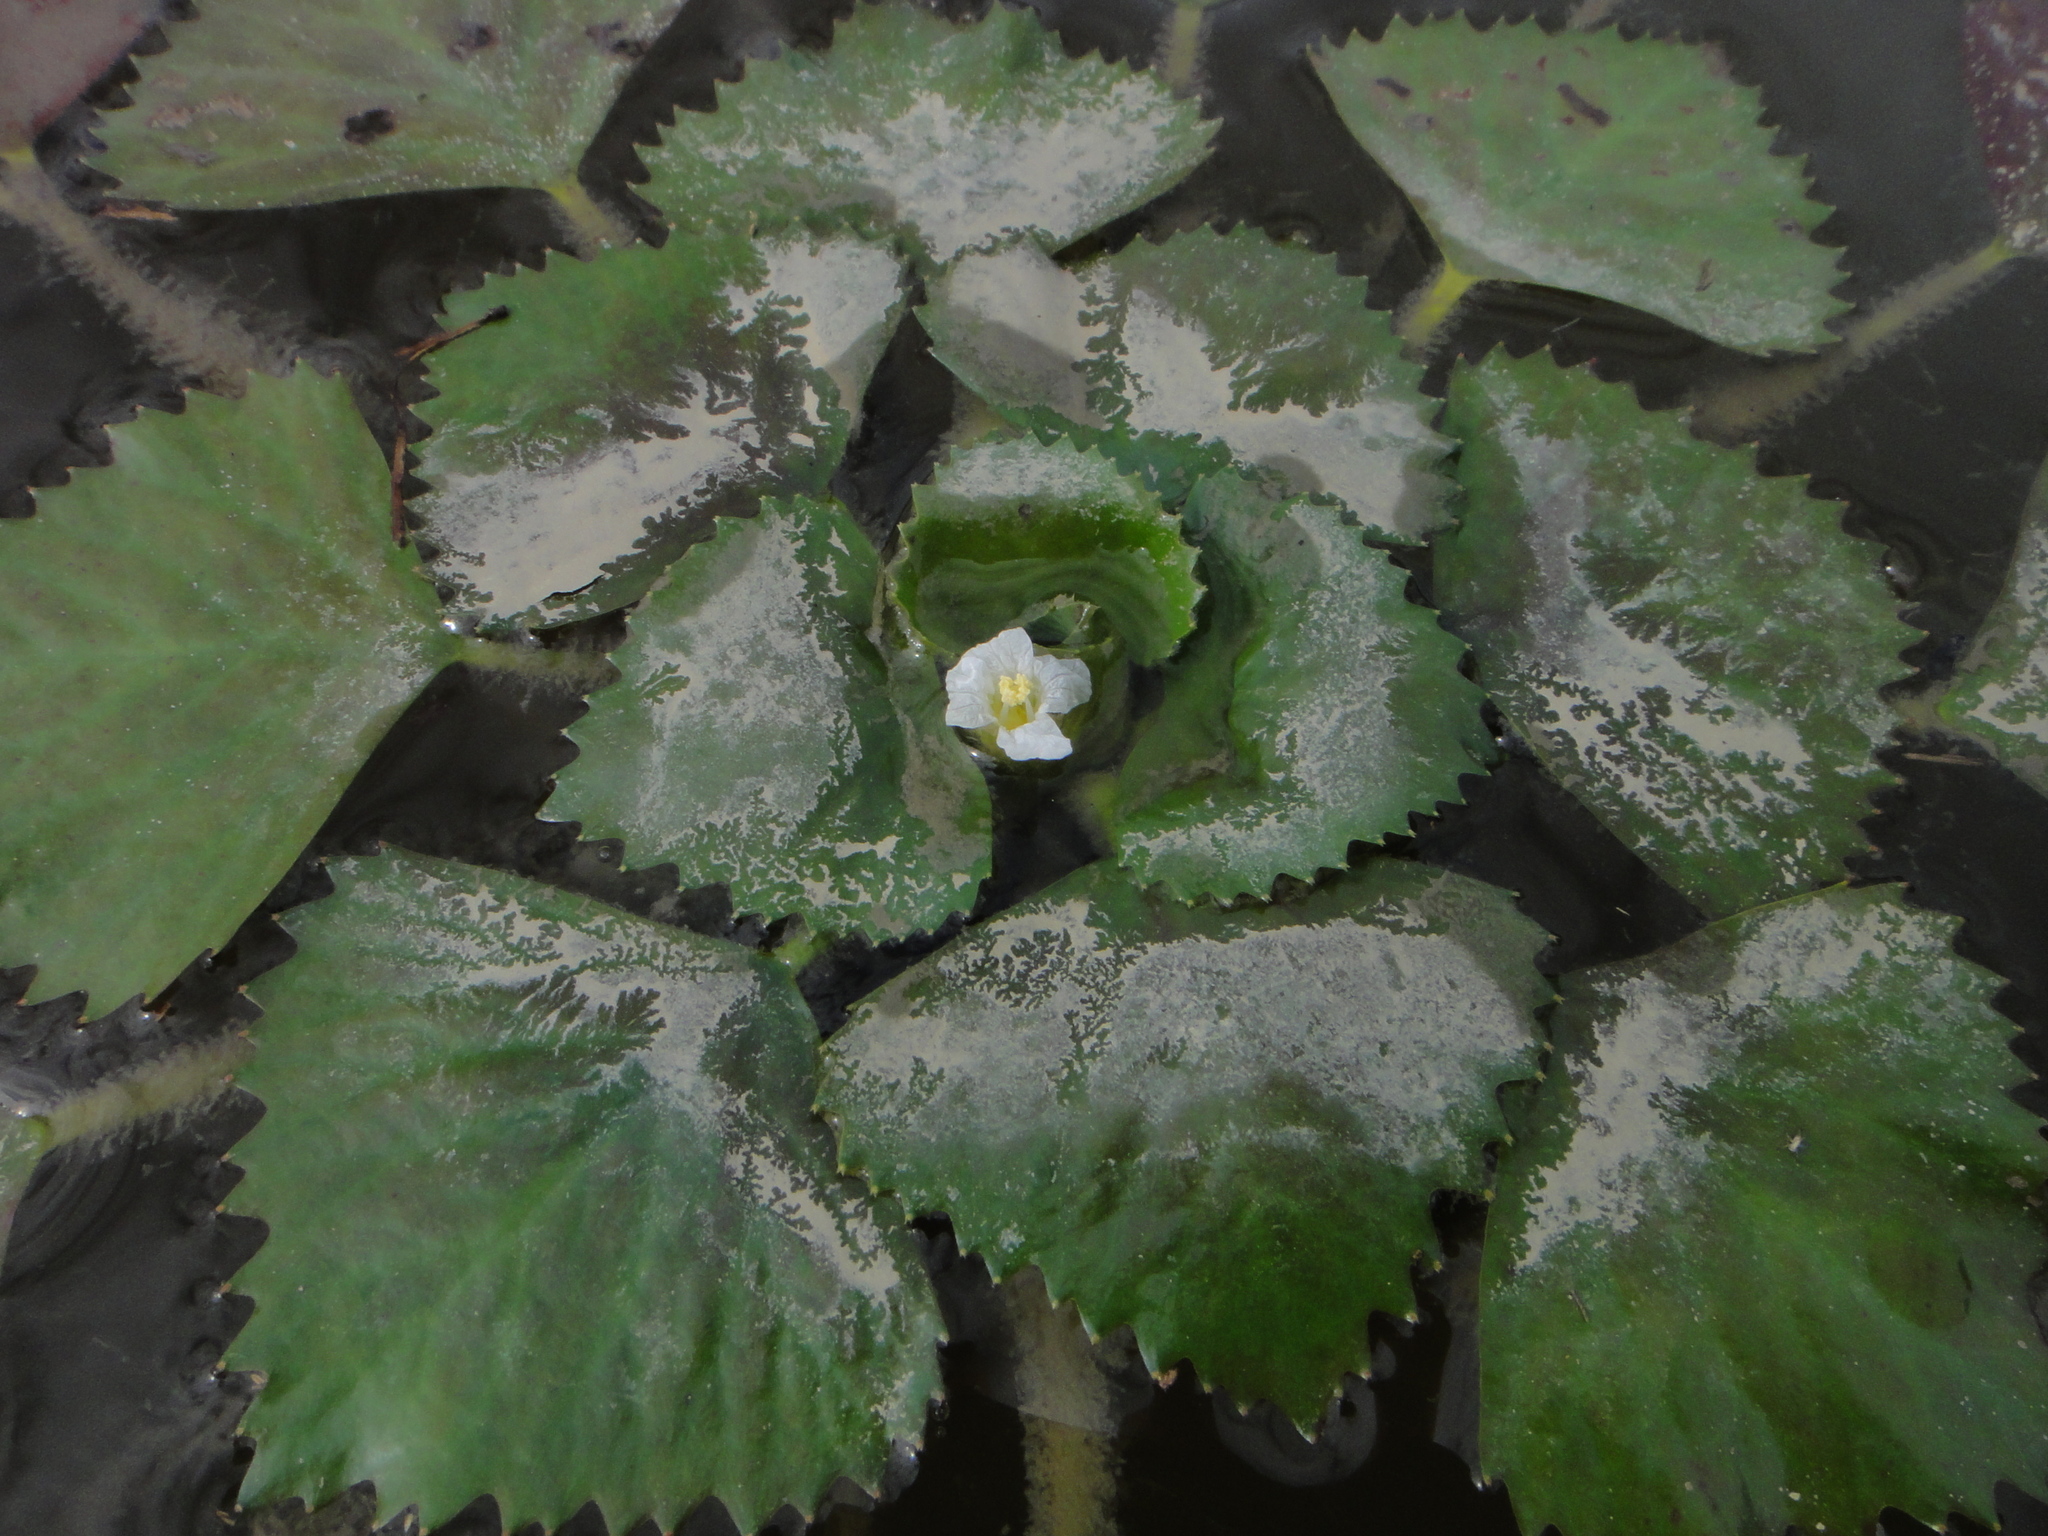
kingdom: Plantae
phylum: Tracheophyta
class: Magnoliopsida
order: Myrtales
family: Lythraceae
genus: Trapa
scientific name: Trapa natans
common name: Water chestnut
